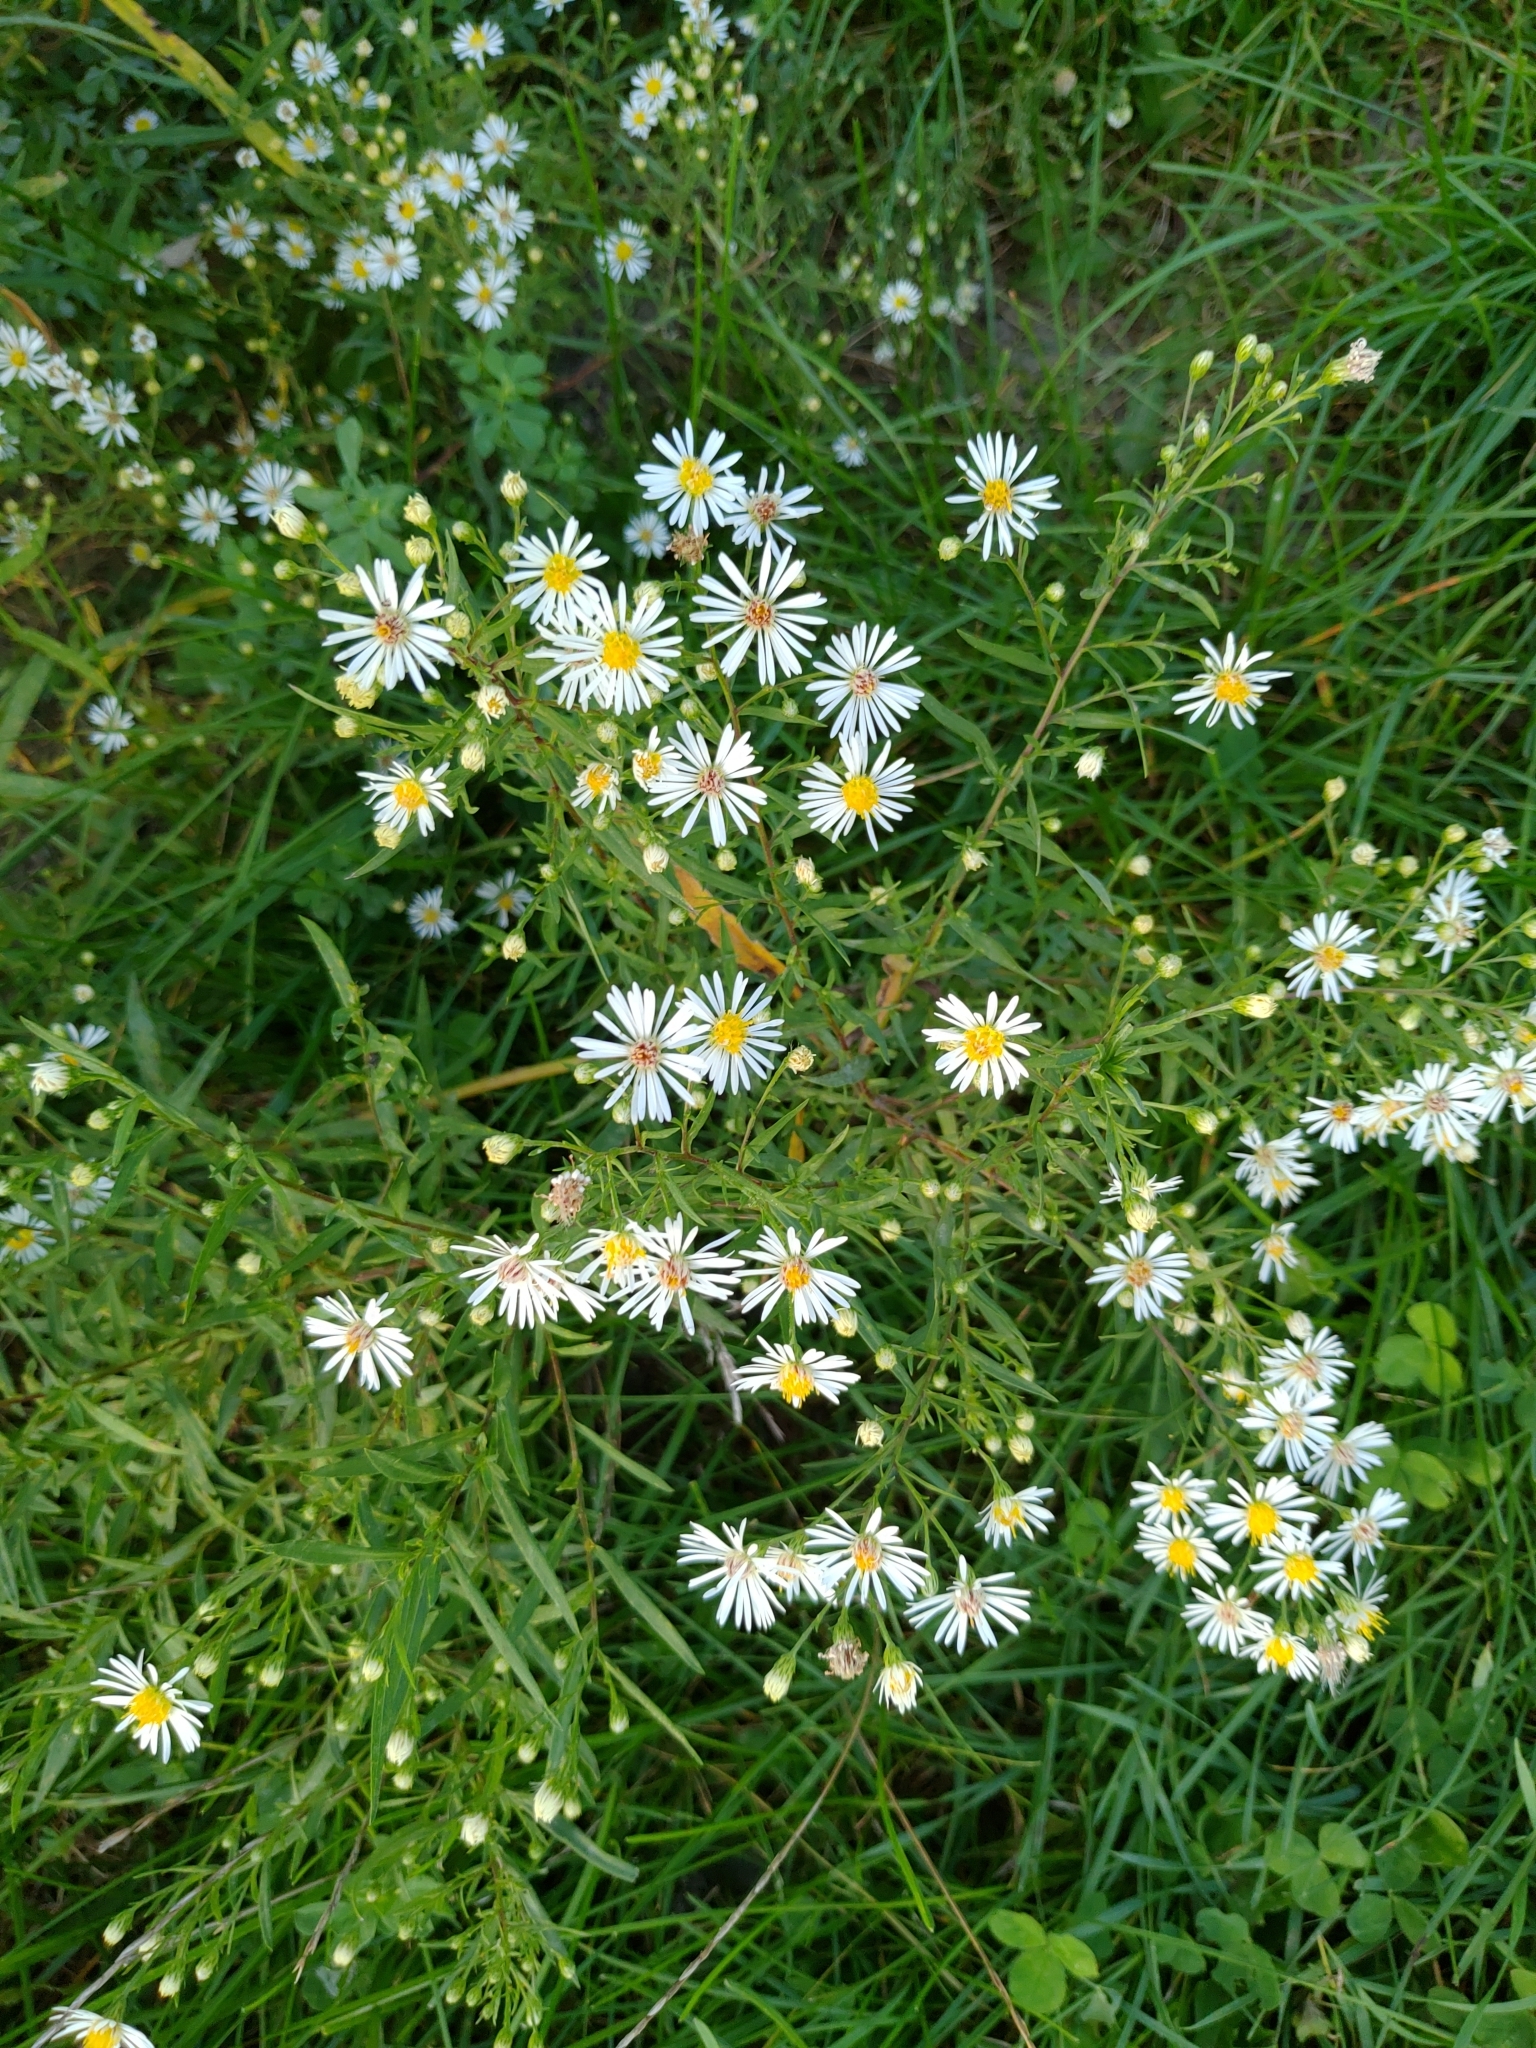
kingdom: Plantae
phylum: Tracheophyta
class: Magnoliopsida
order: Asterales
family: Asteraceae
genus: Symphyotrichum
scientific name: Symphyotrichum lanceolatum
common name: Panicled aster
